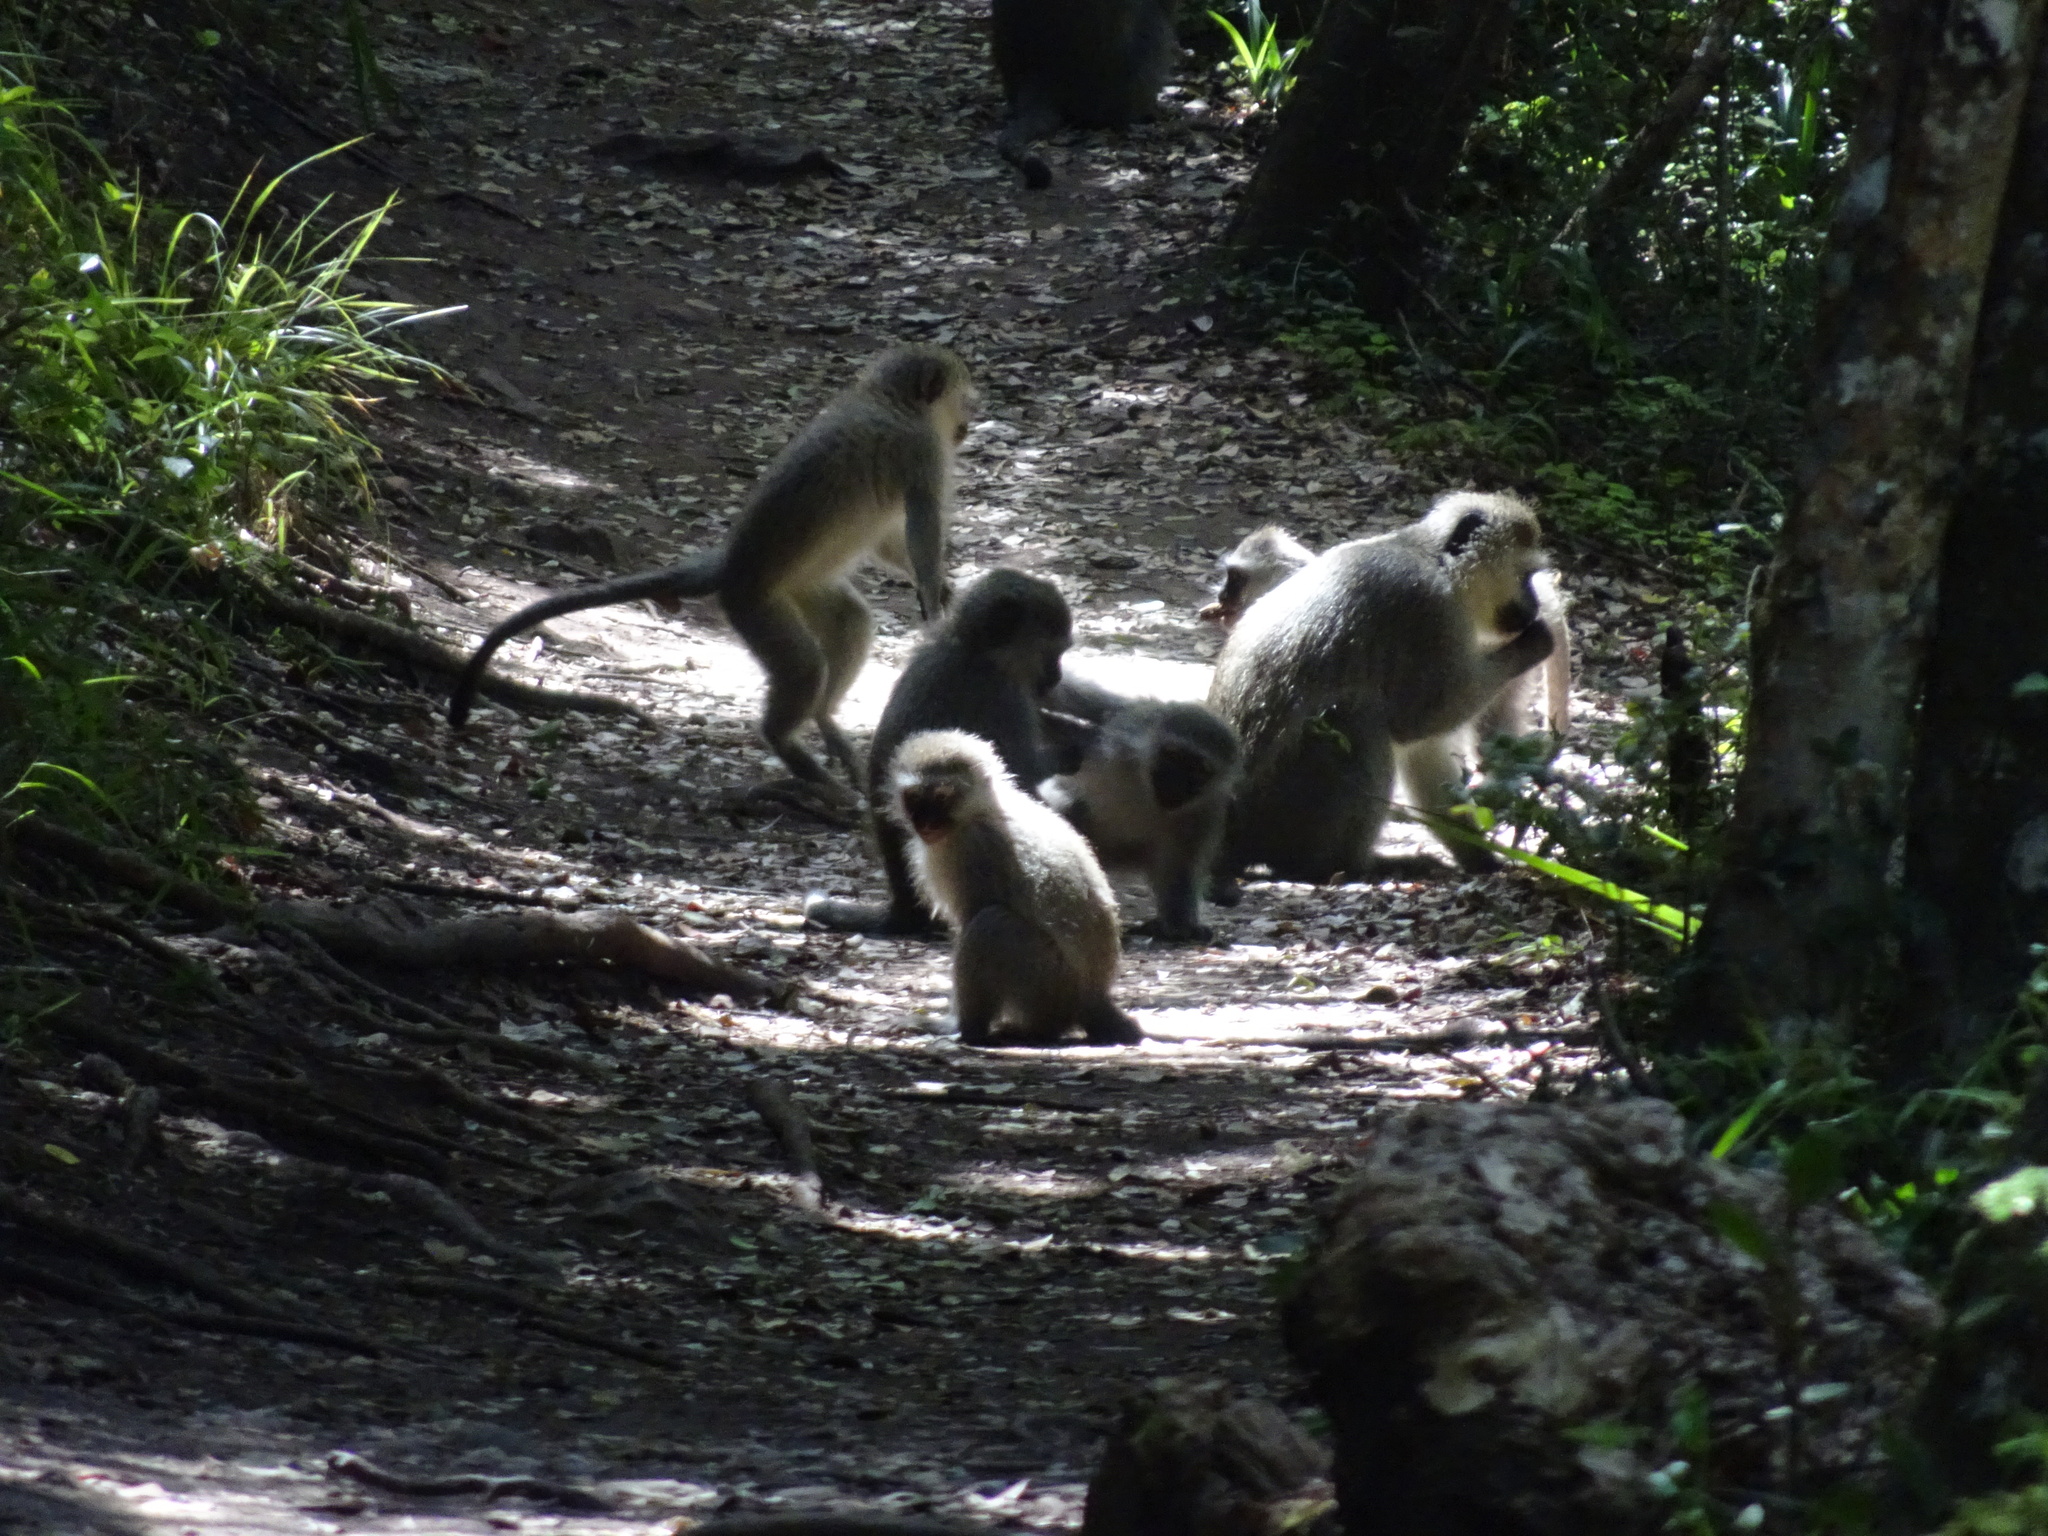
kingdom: Animalia
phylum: Chordata
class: Mammalia
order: Primates
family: Cercopithecidae
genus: Chlorocebus
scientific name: Chlorocebus pygerythrus
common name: Vervet monkey
